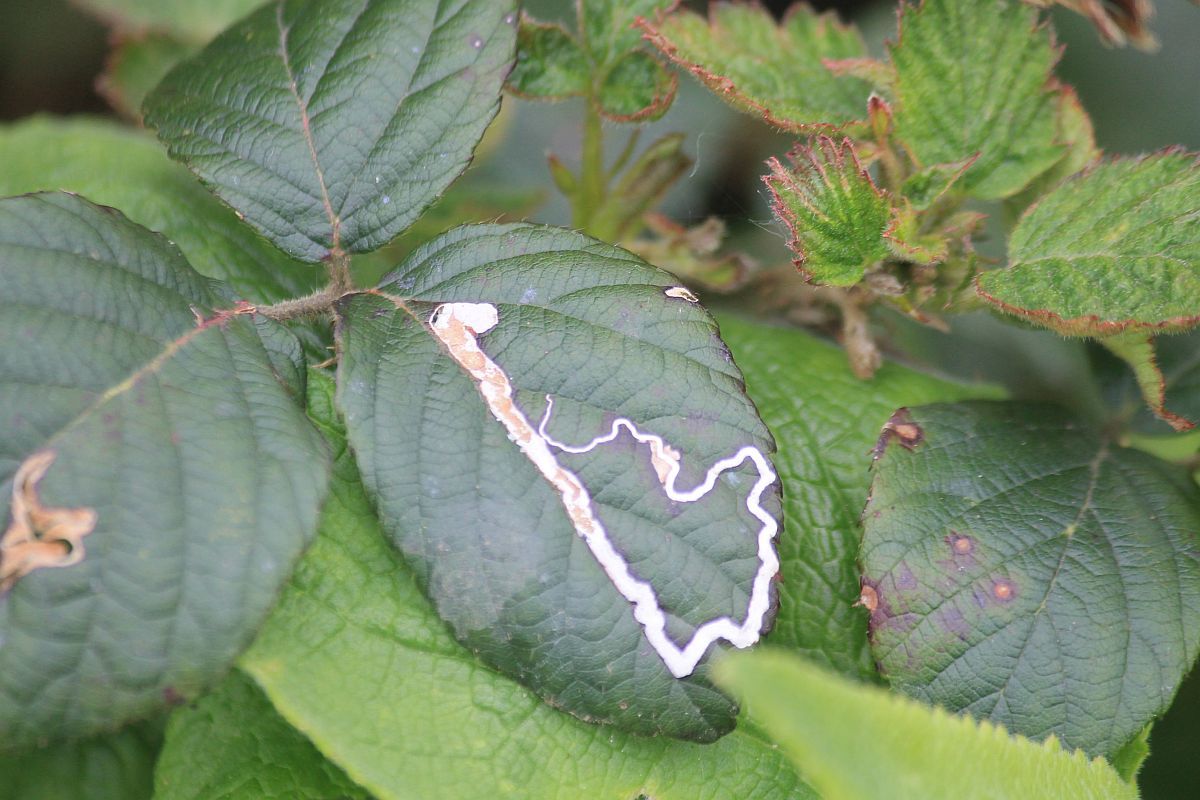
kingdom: Animalia
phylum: Arthropoda
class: Insecta
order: Lepidoptera
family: Nepticulidae
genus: Stigmella
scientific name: Stigmella aurella
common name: Golden pigmy
